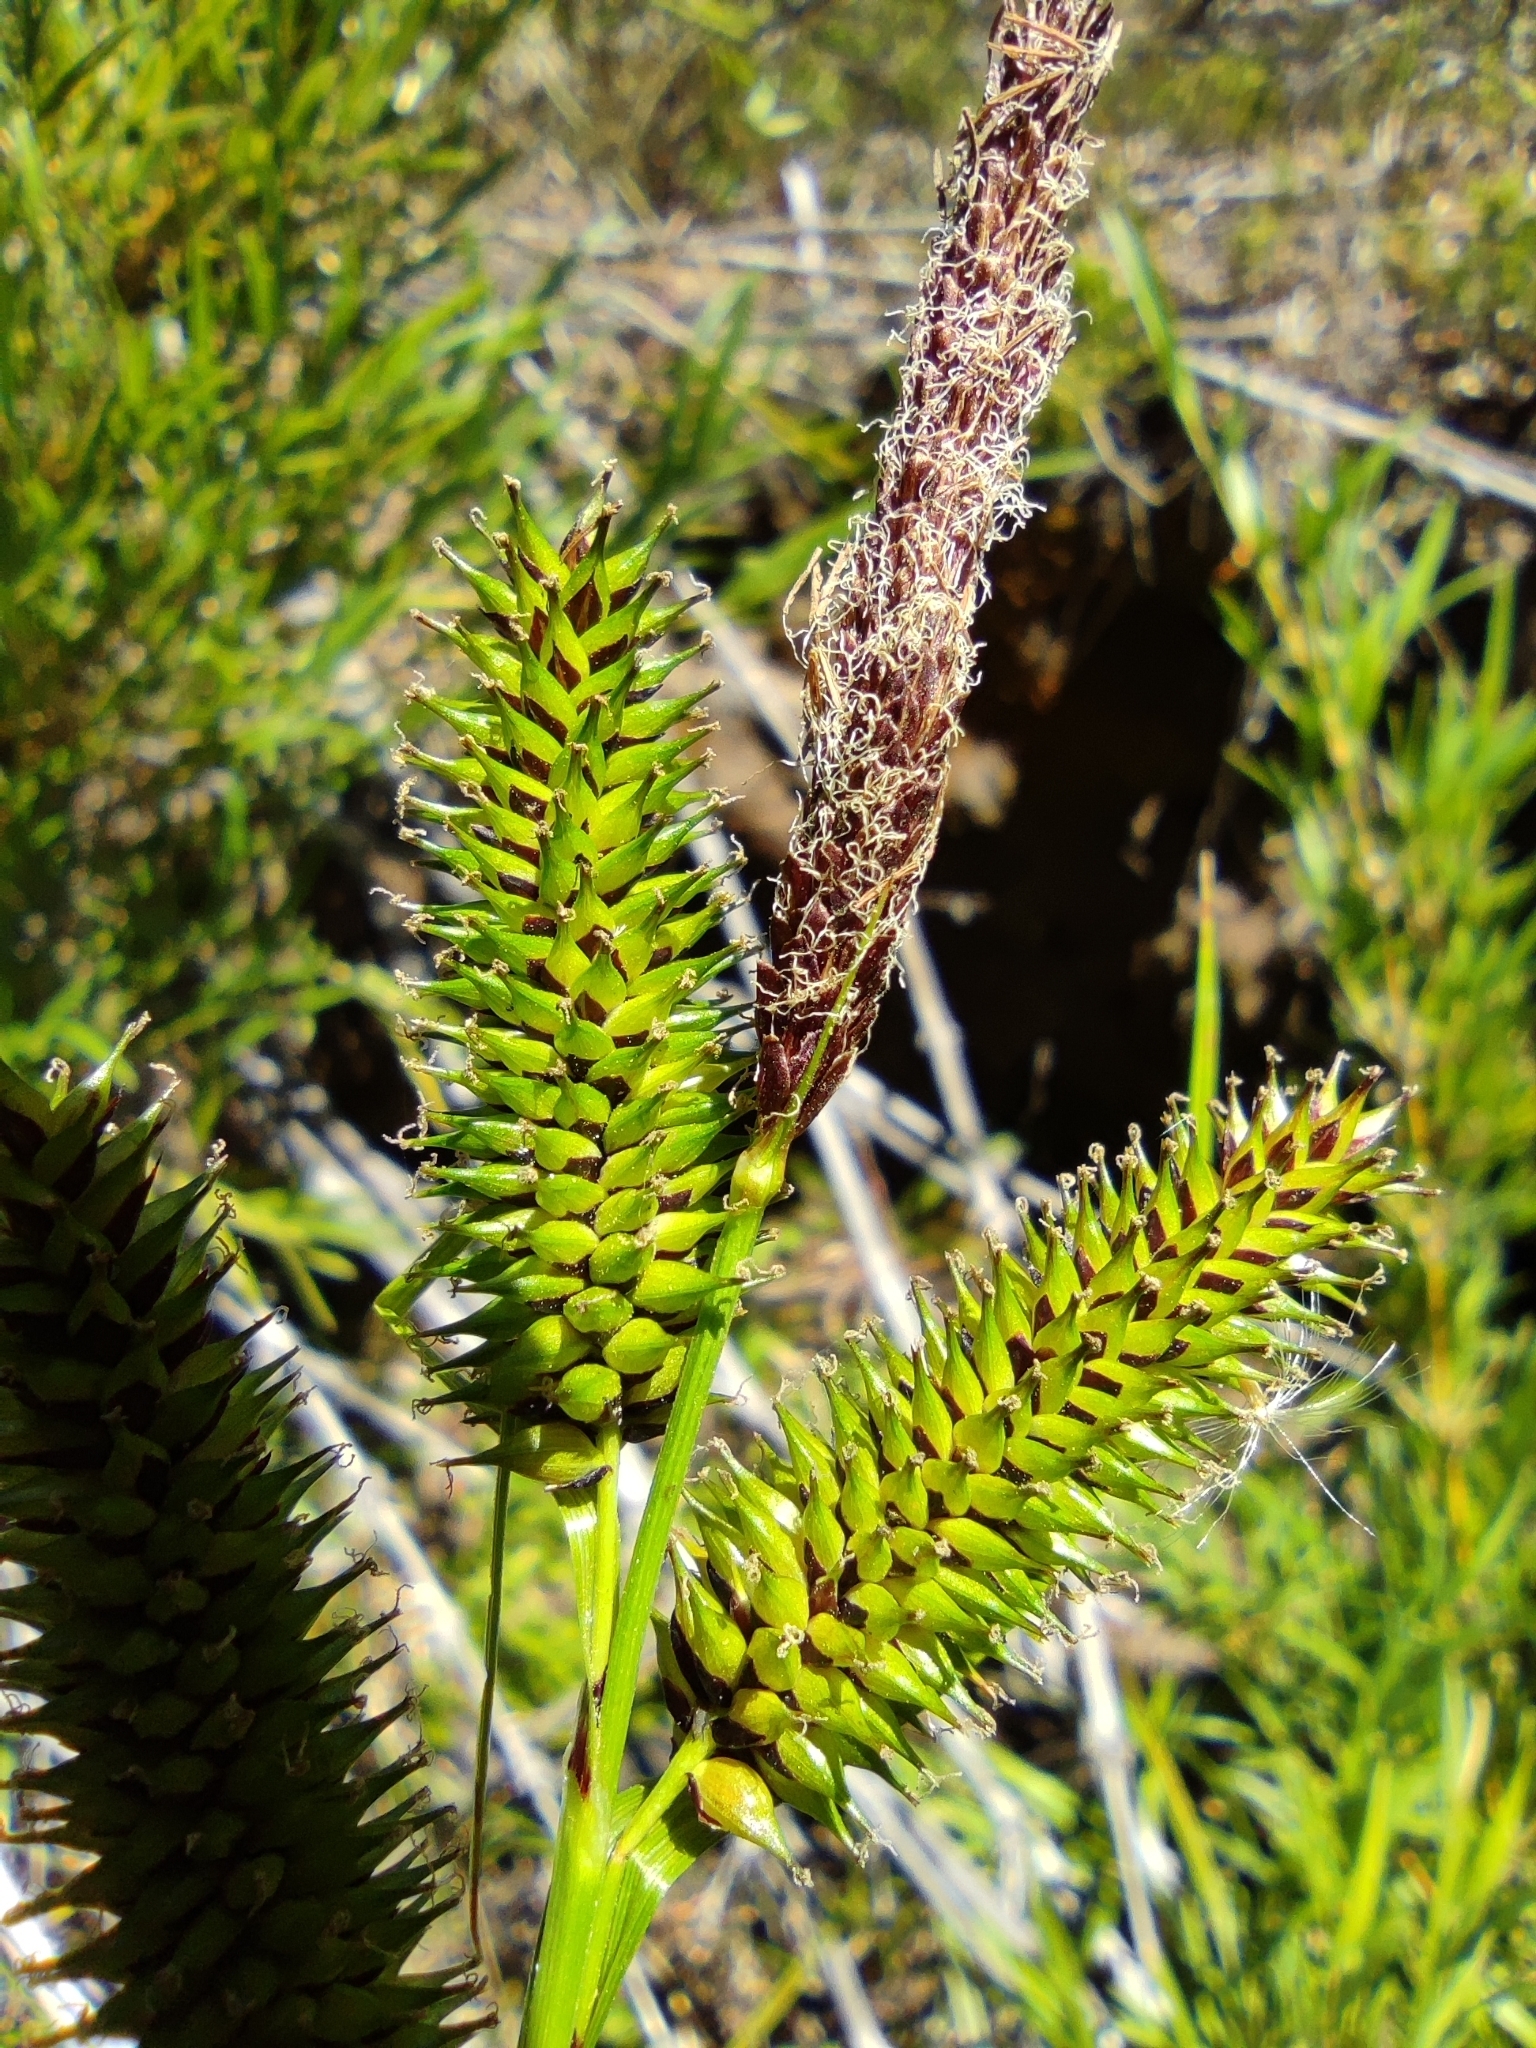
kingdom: Plantae
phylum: Tracheophyta
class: Liliopsida
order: Poales
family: Cyperaceae
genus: Carex
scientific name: Carex multispicata
